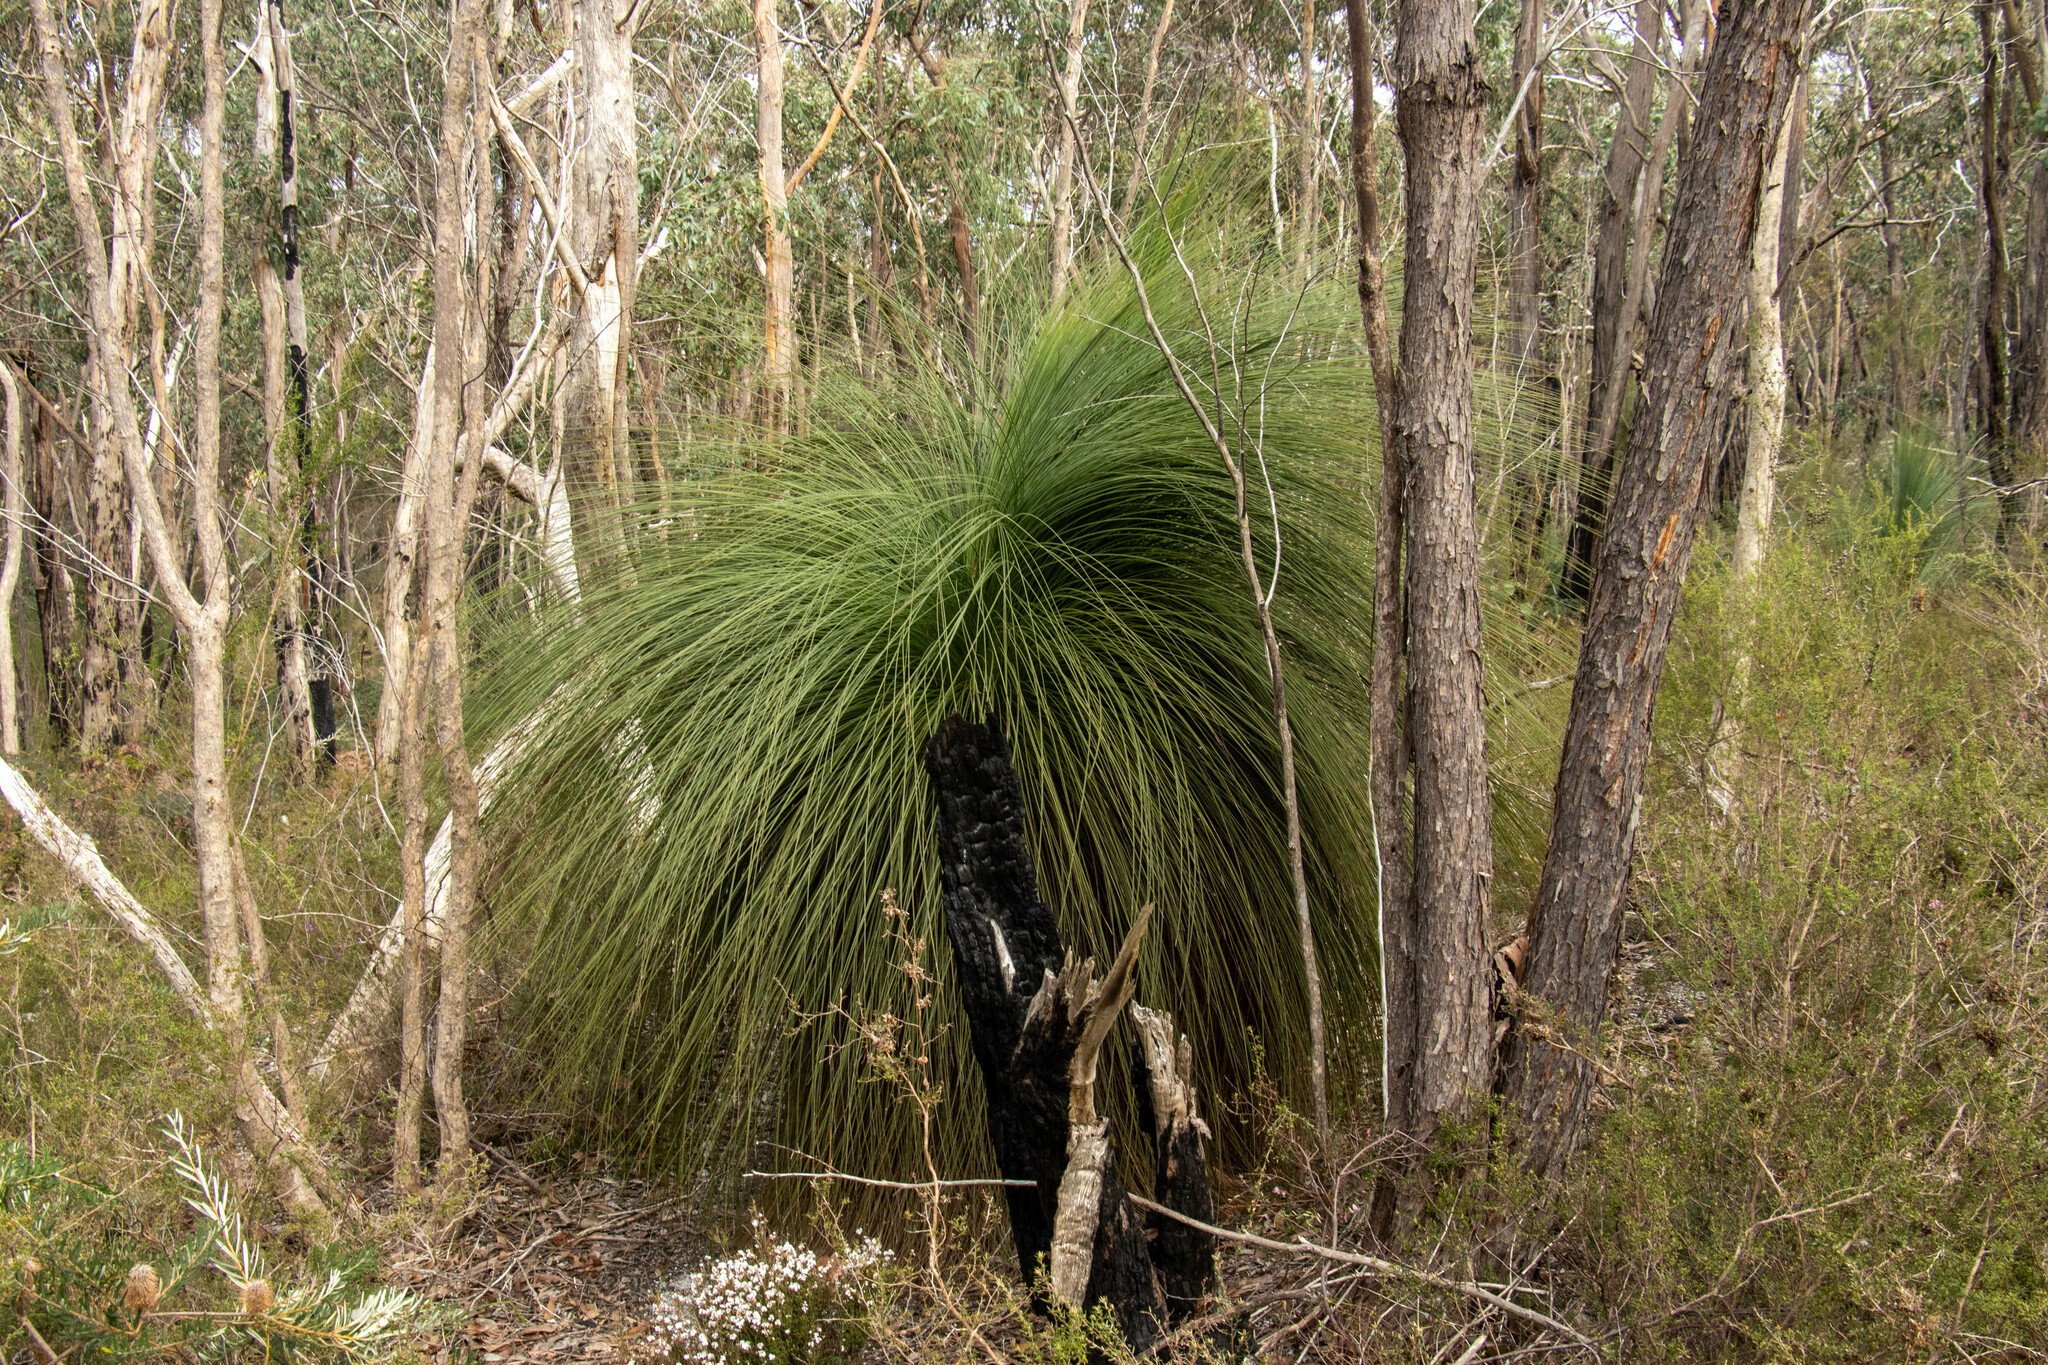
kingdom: Plantae
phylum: Tracheophyta
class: Liliopsida
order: Asparagales
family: Asphodelaceae
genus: Xanthorrhoea
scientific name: Xanthorrhoea australis
